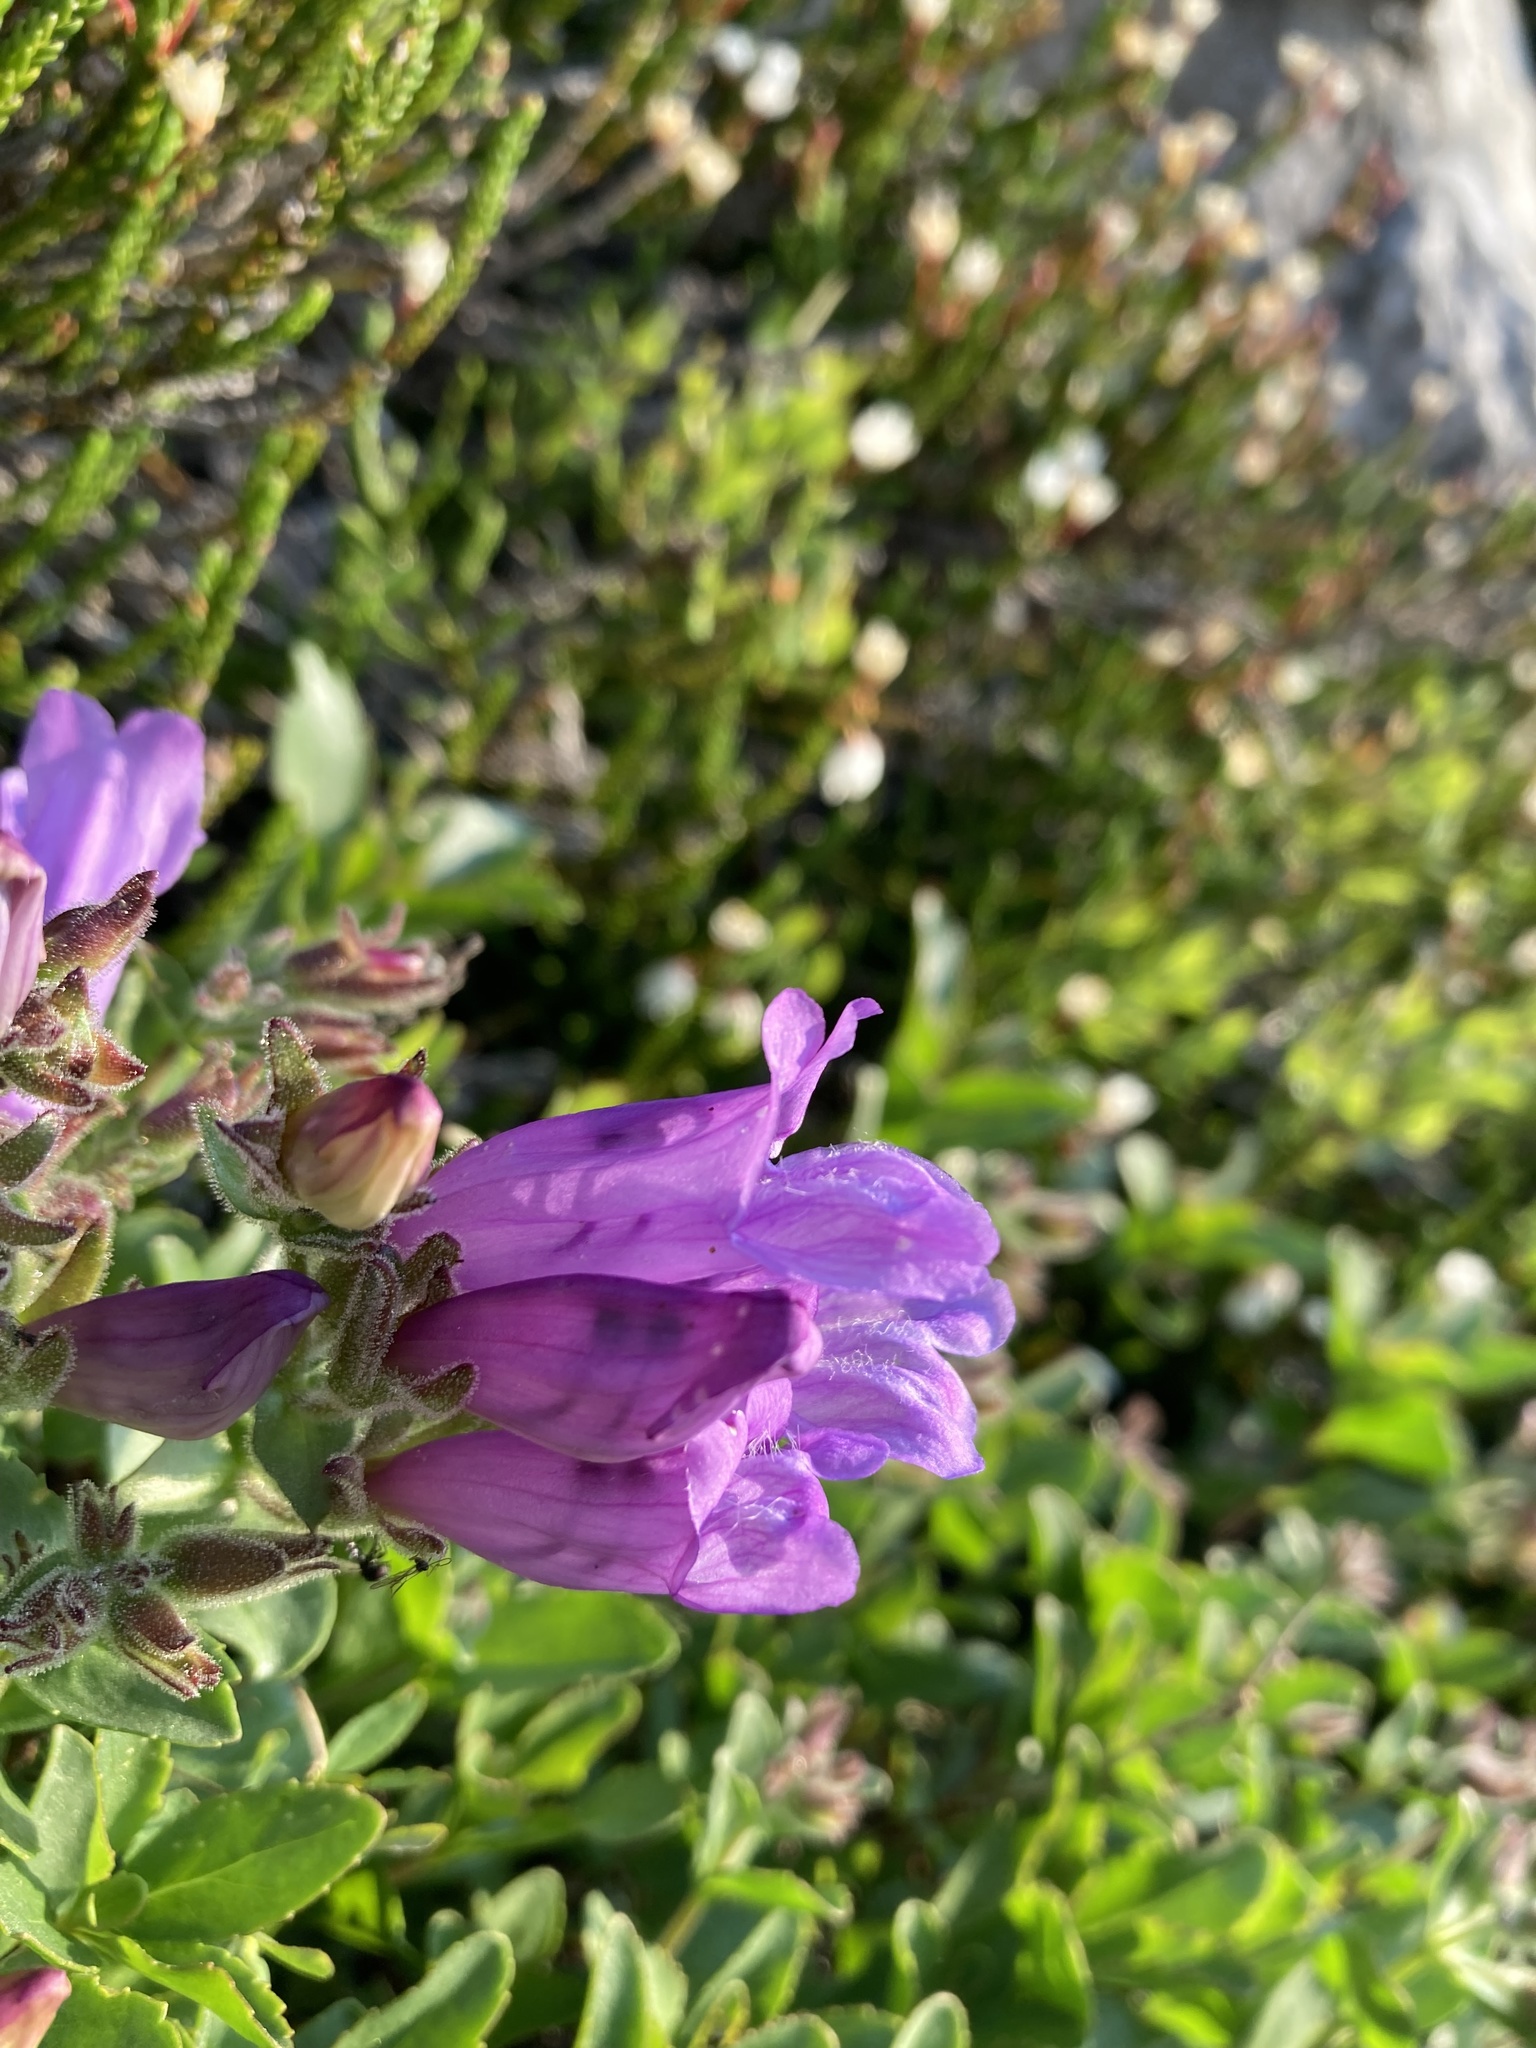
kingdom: Plantae
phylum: Tracheophyta
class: Magnoliopsida
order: Lamiales
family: Plantaginaceae
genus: Penstemon
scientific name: Penstemon ellipticus
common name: Alpine beardtongue
